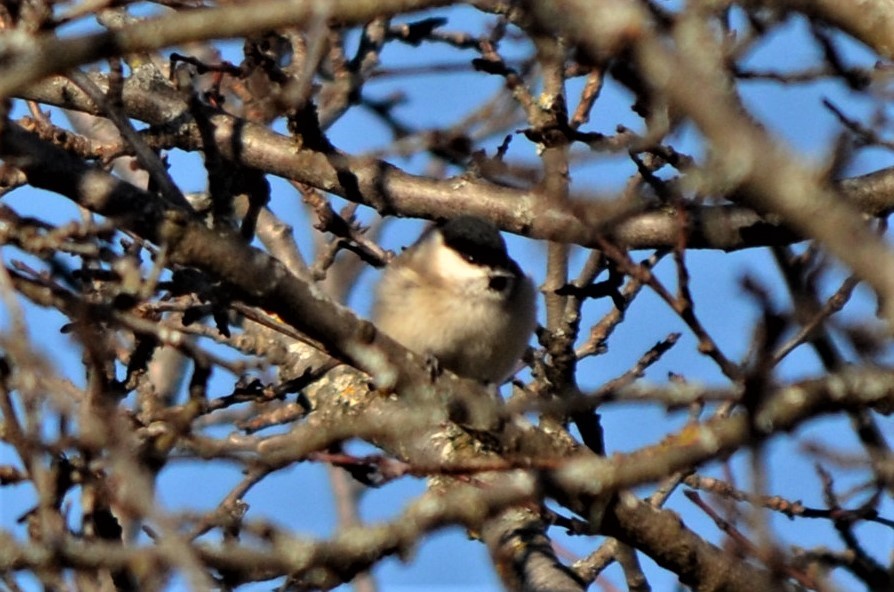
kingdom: Animalia
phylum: Chordata
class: Aves
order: Passeriformes
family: Paridae
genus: Poecile
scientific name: Poecile palustris
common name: Marsh tit
